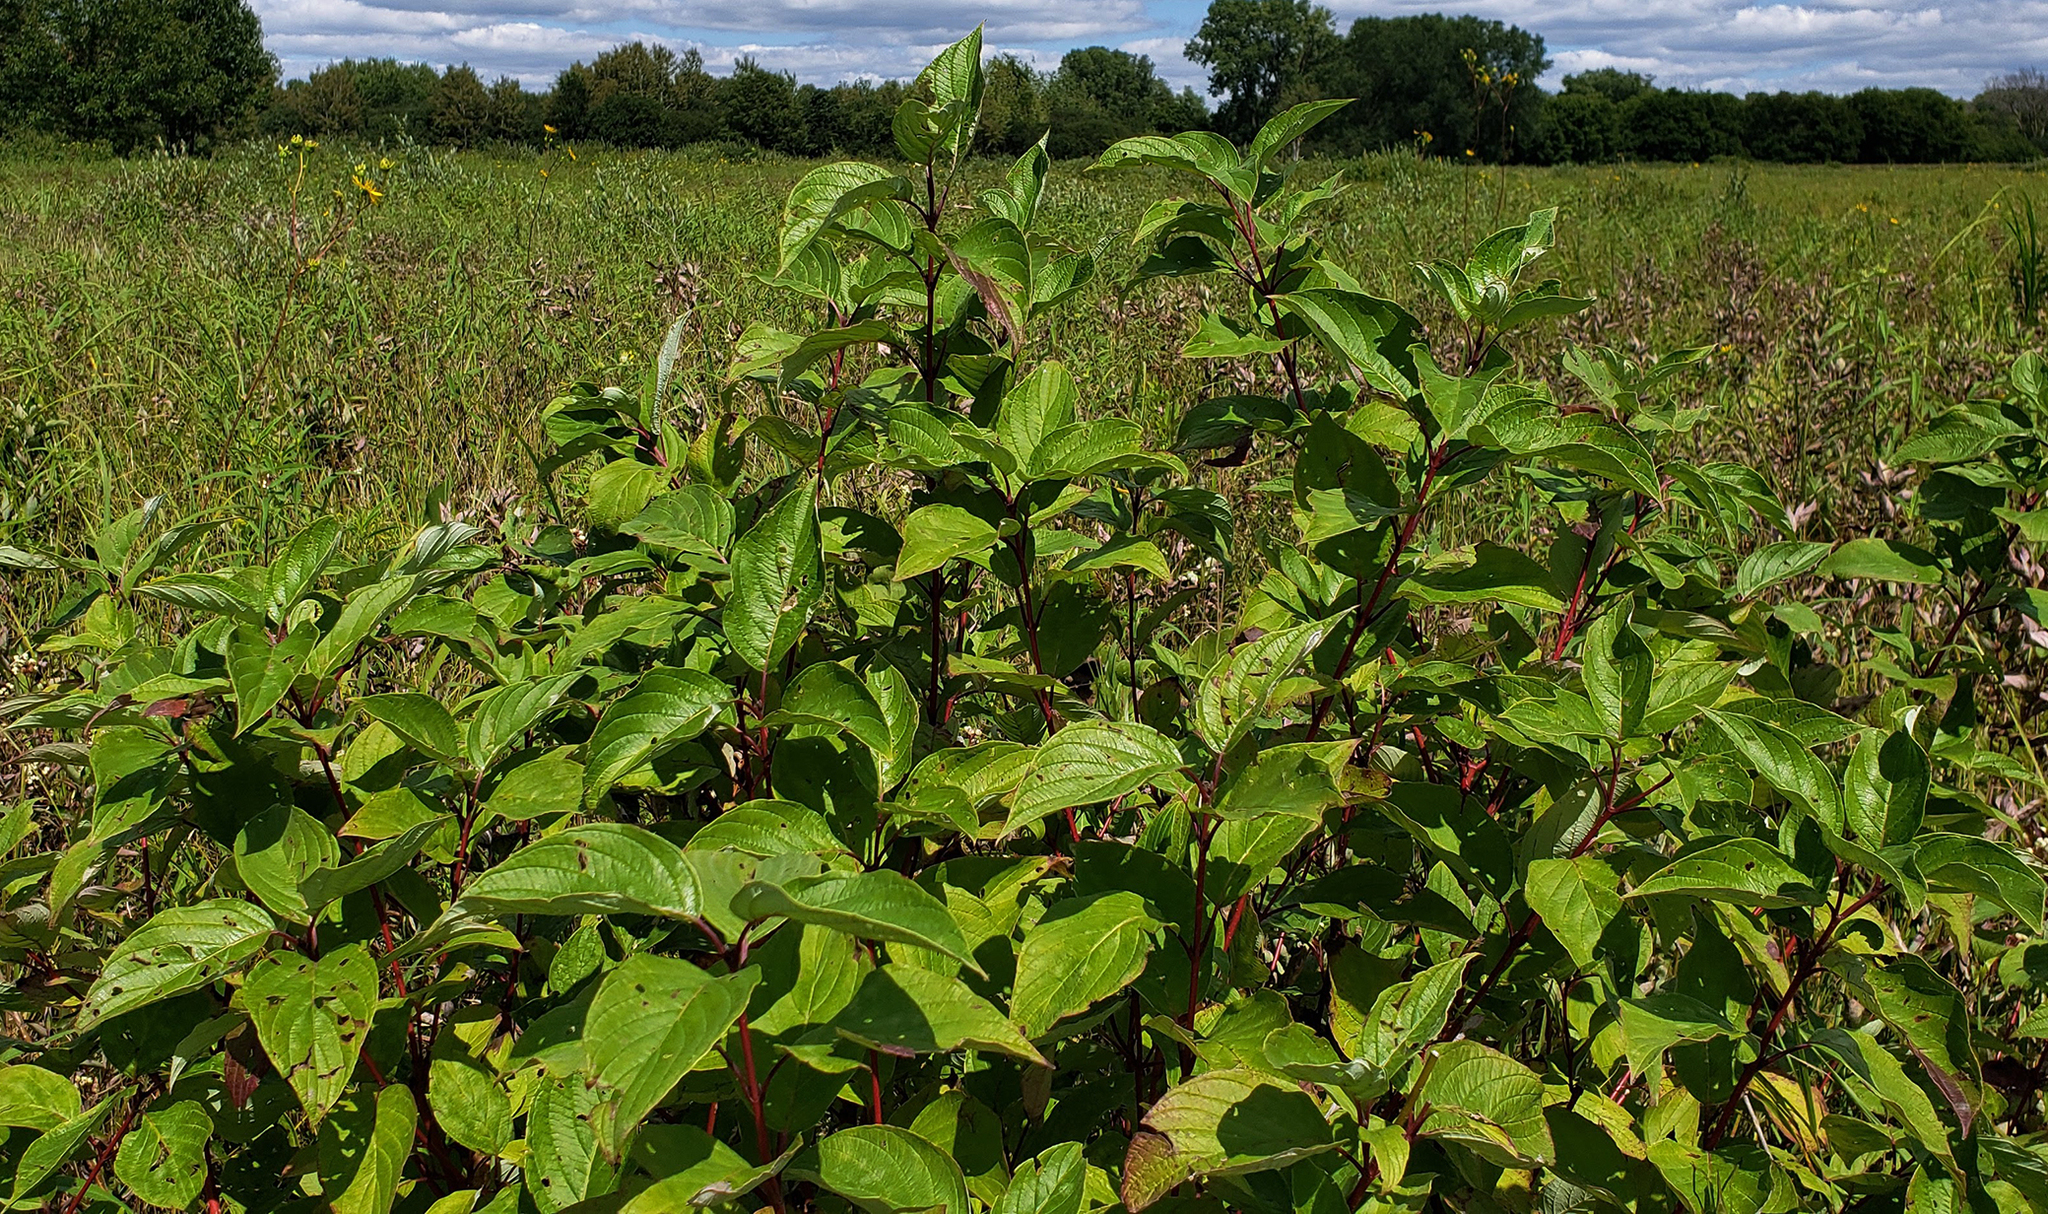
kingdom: Plantae
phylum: Tracheophyta
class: Magnoliopsida
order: Cornales
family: Cornaceae
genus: Cornus
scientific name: Cornus sericea
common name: Red-osier dogwood
